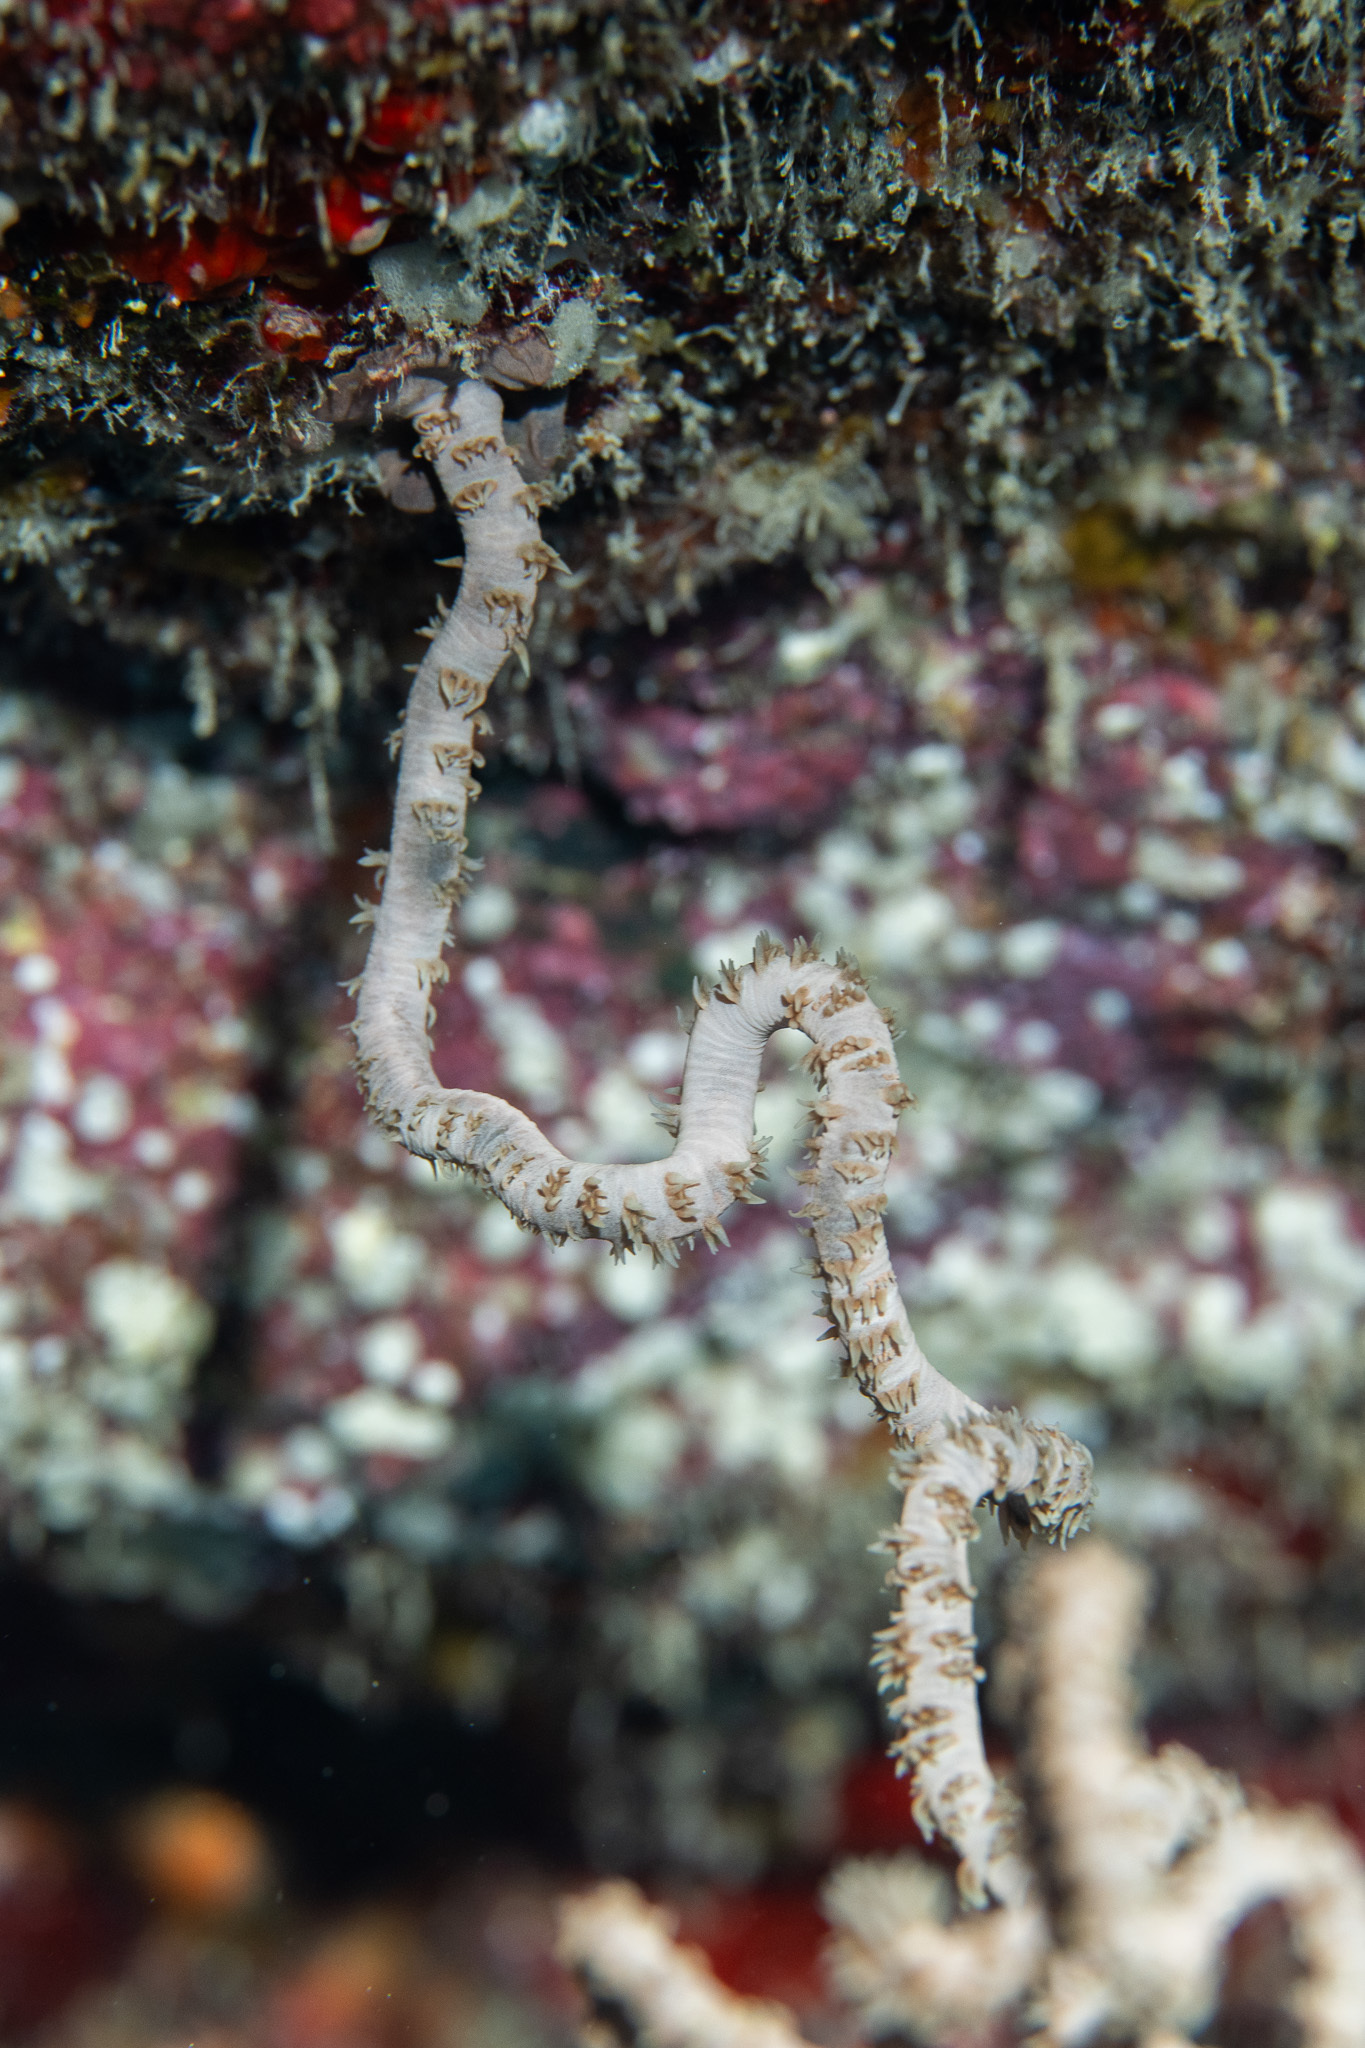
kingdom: Animalia
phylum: Cnidaria
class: Anthozoa
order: Antipatharia
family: Antipathidae
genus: Cirrhipathes
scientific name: Cirrhipathes anguina
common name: Whip coral
